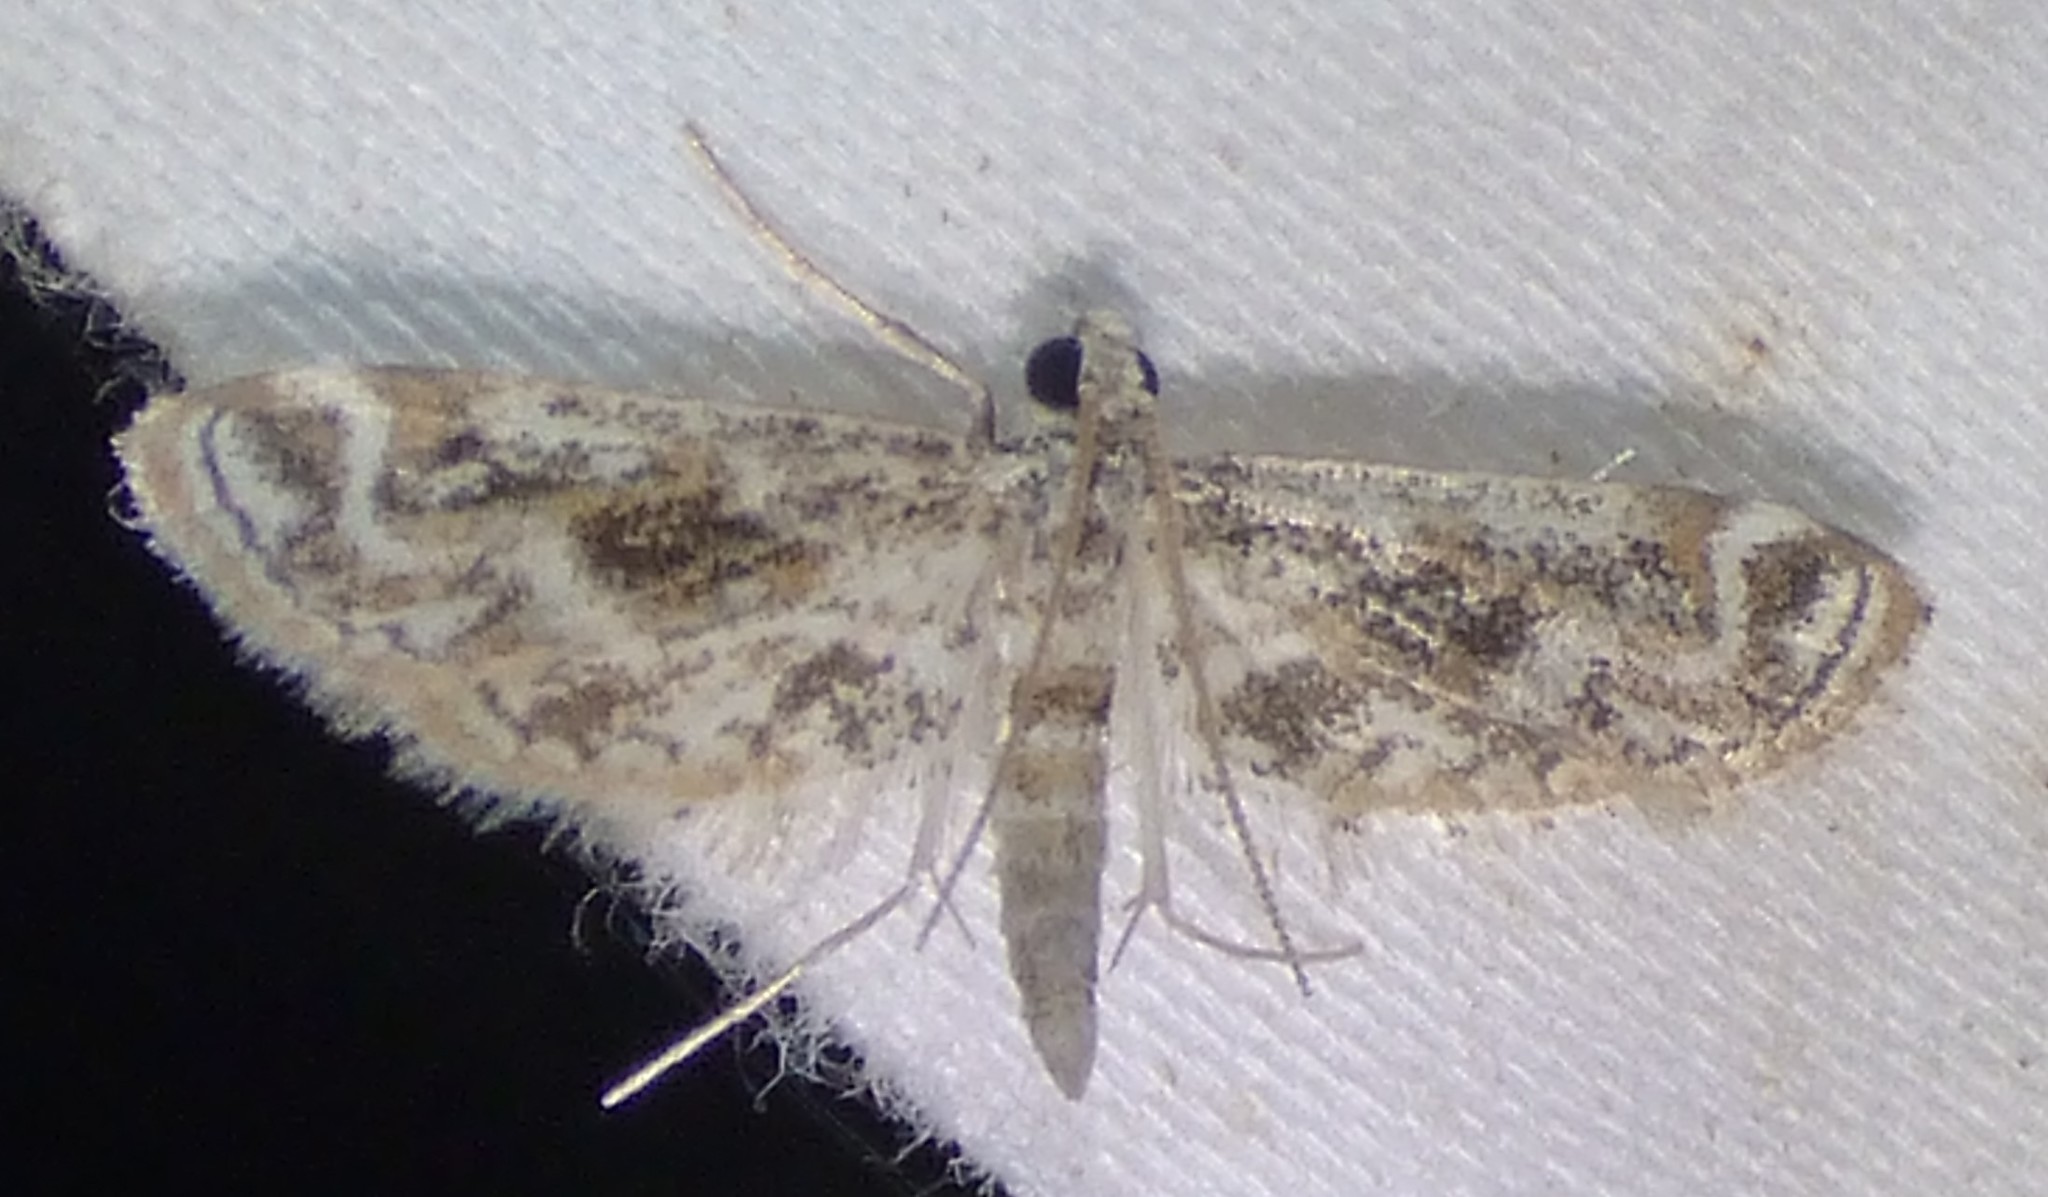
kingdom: Animalia
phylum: Arthropoda
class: Insecta
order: Lepidoptera
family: Crambidae
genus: Parapoynx
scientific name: Parapoynx diminutalis
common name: Hydrilla leafcutter
